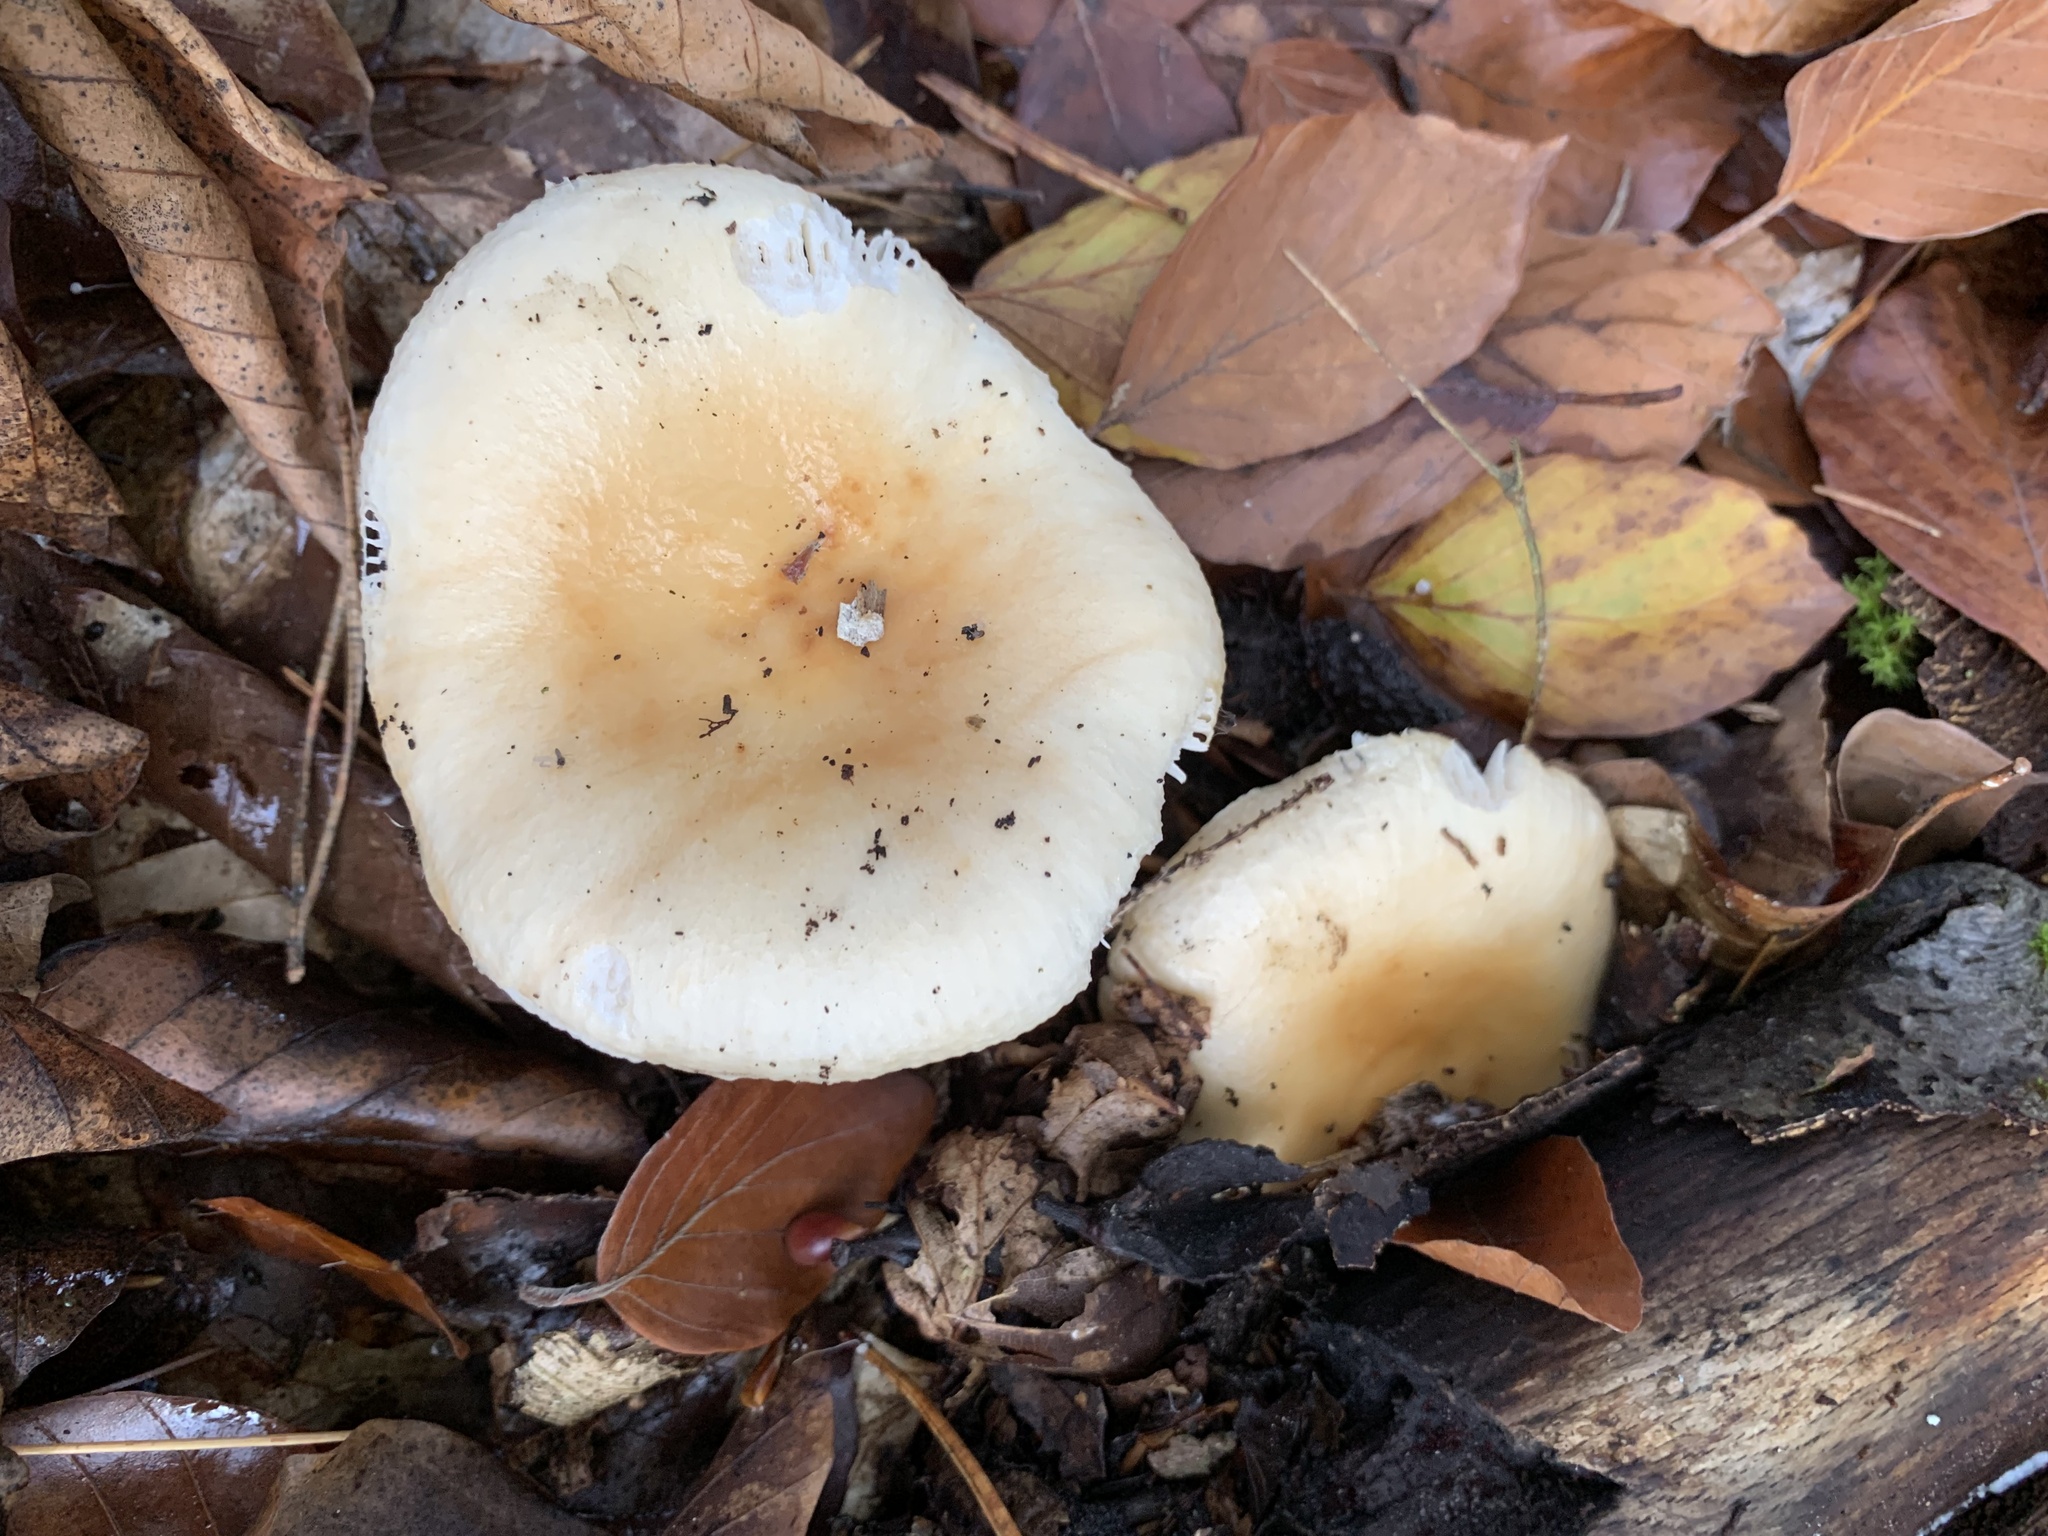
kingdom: Fungi
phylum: Basidiomycota
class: Agaricomycetes
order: Russulales
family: Russulaceae
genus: Russula
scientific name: Russula fellea
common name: Geranium brittlegill
